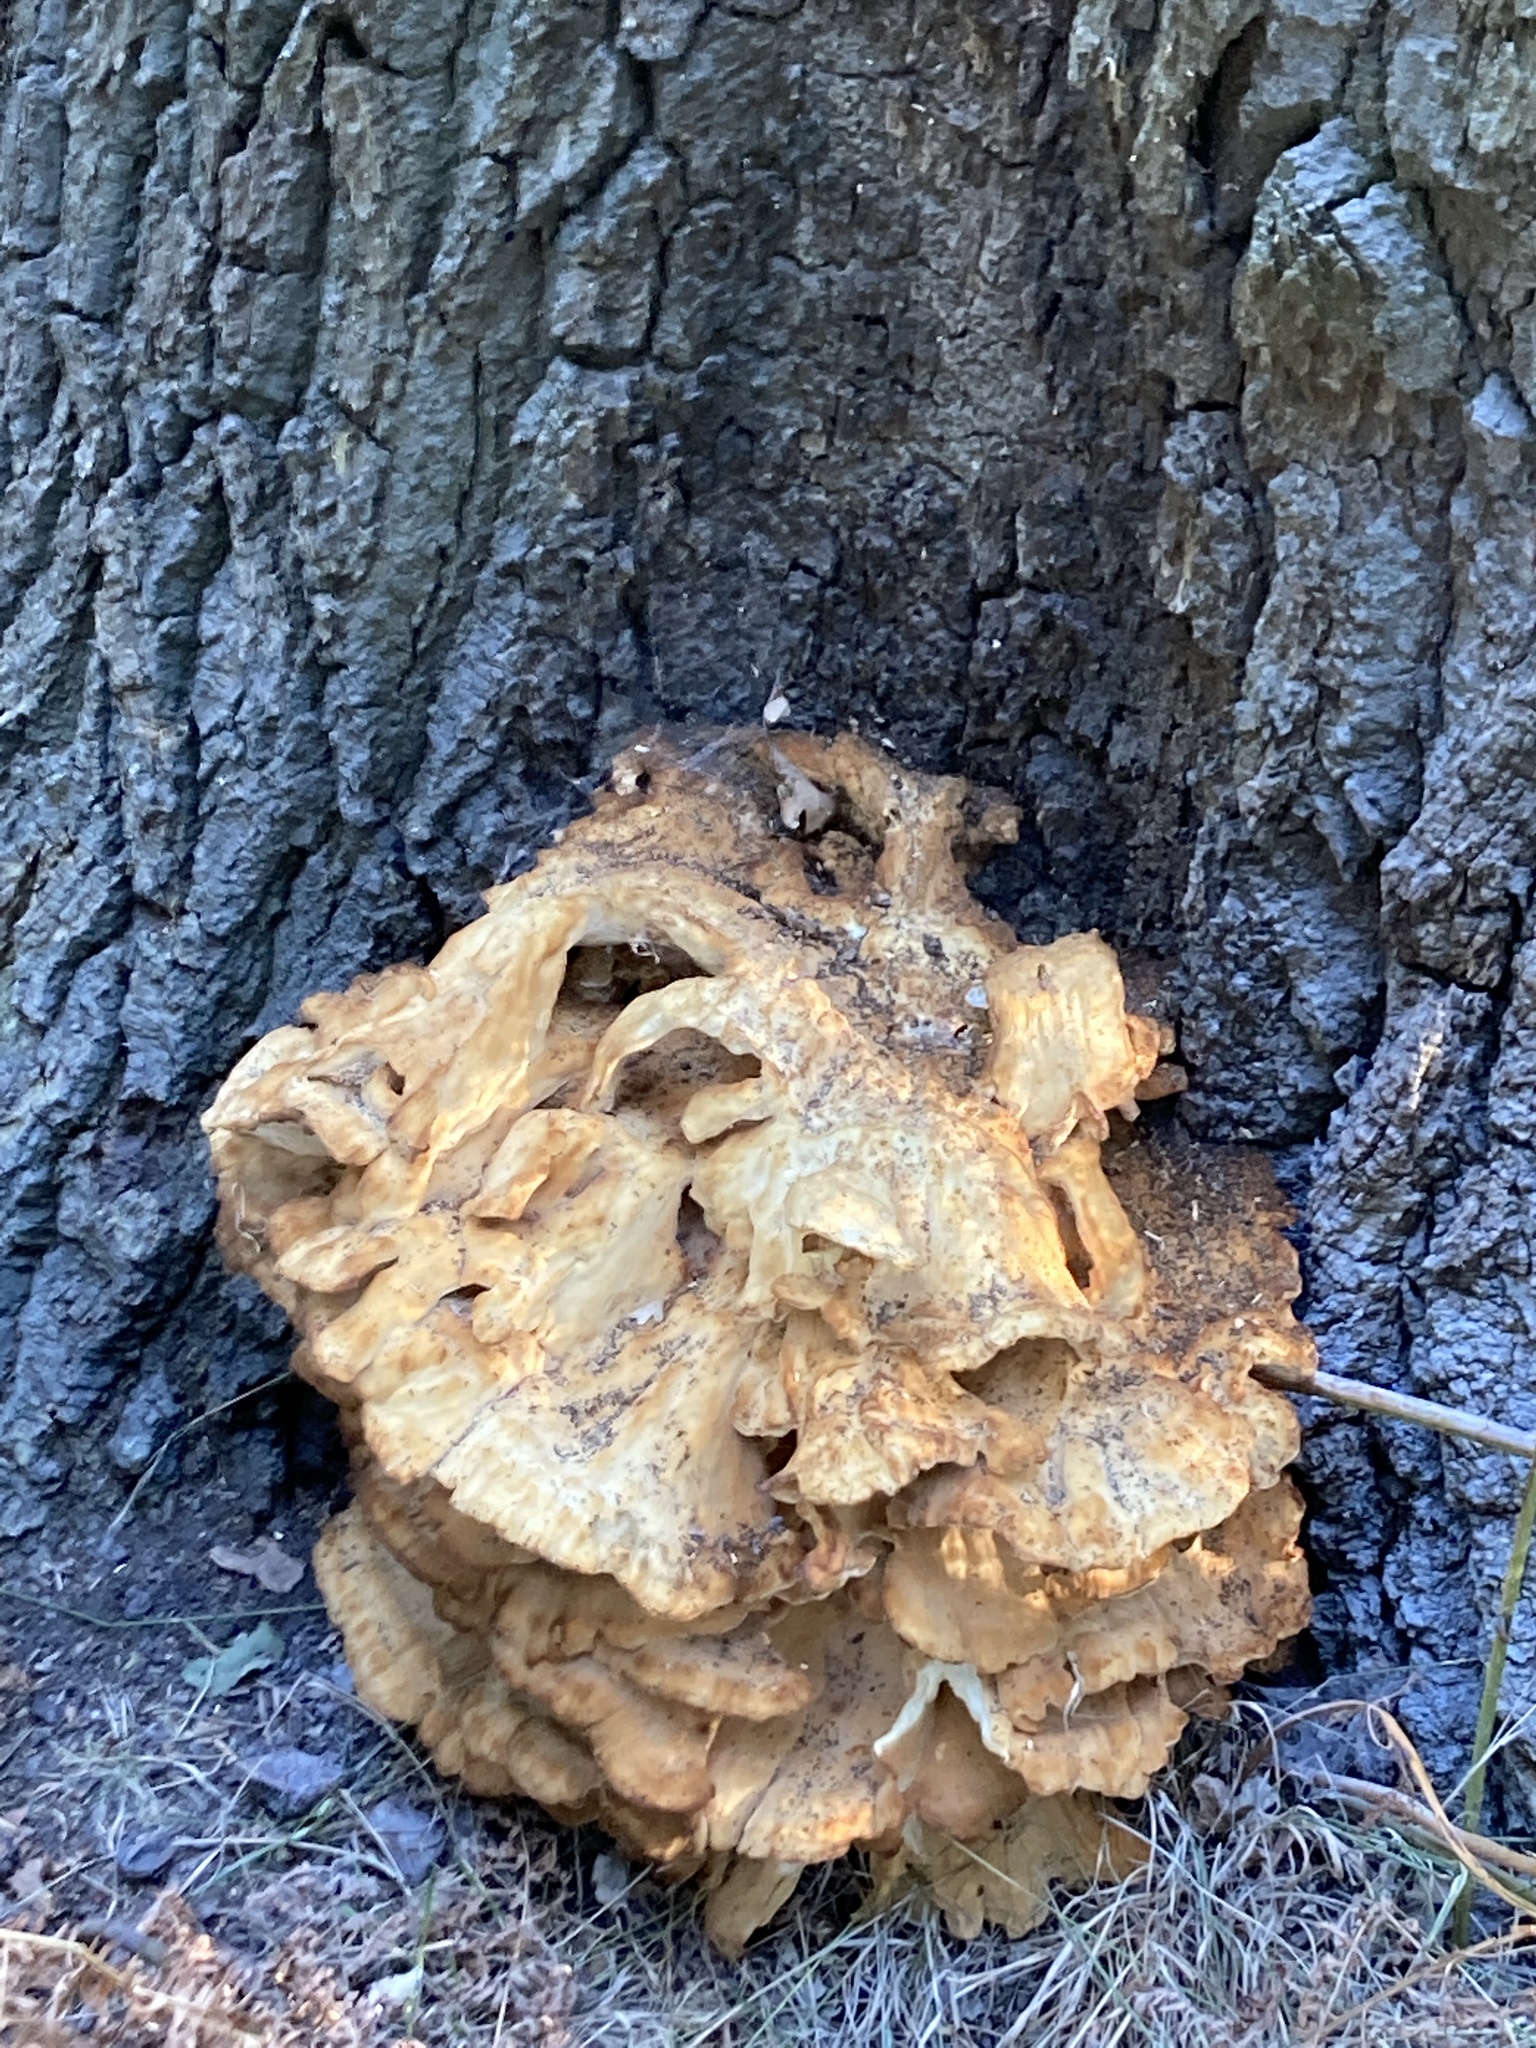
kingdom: Fungi
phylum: Basidiomycota
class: Agaricomycetes
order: Polyporales
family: Laetiporaceae
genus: Laetiporus
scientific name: Laetiporus sulphureus
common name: Chicken of the woods
